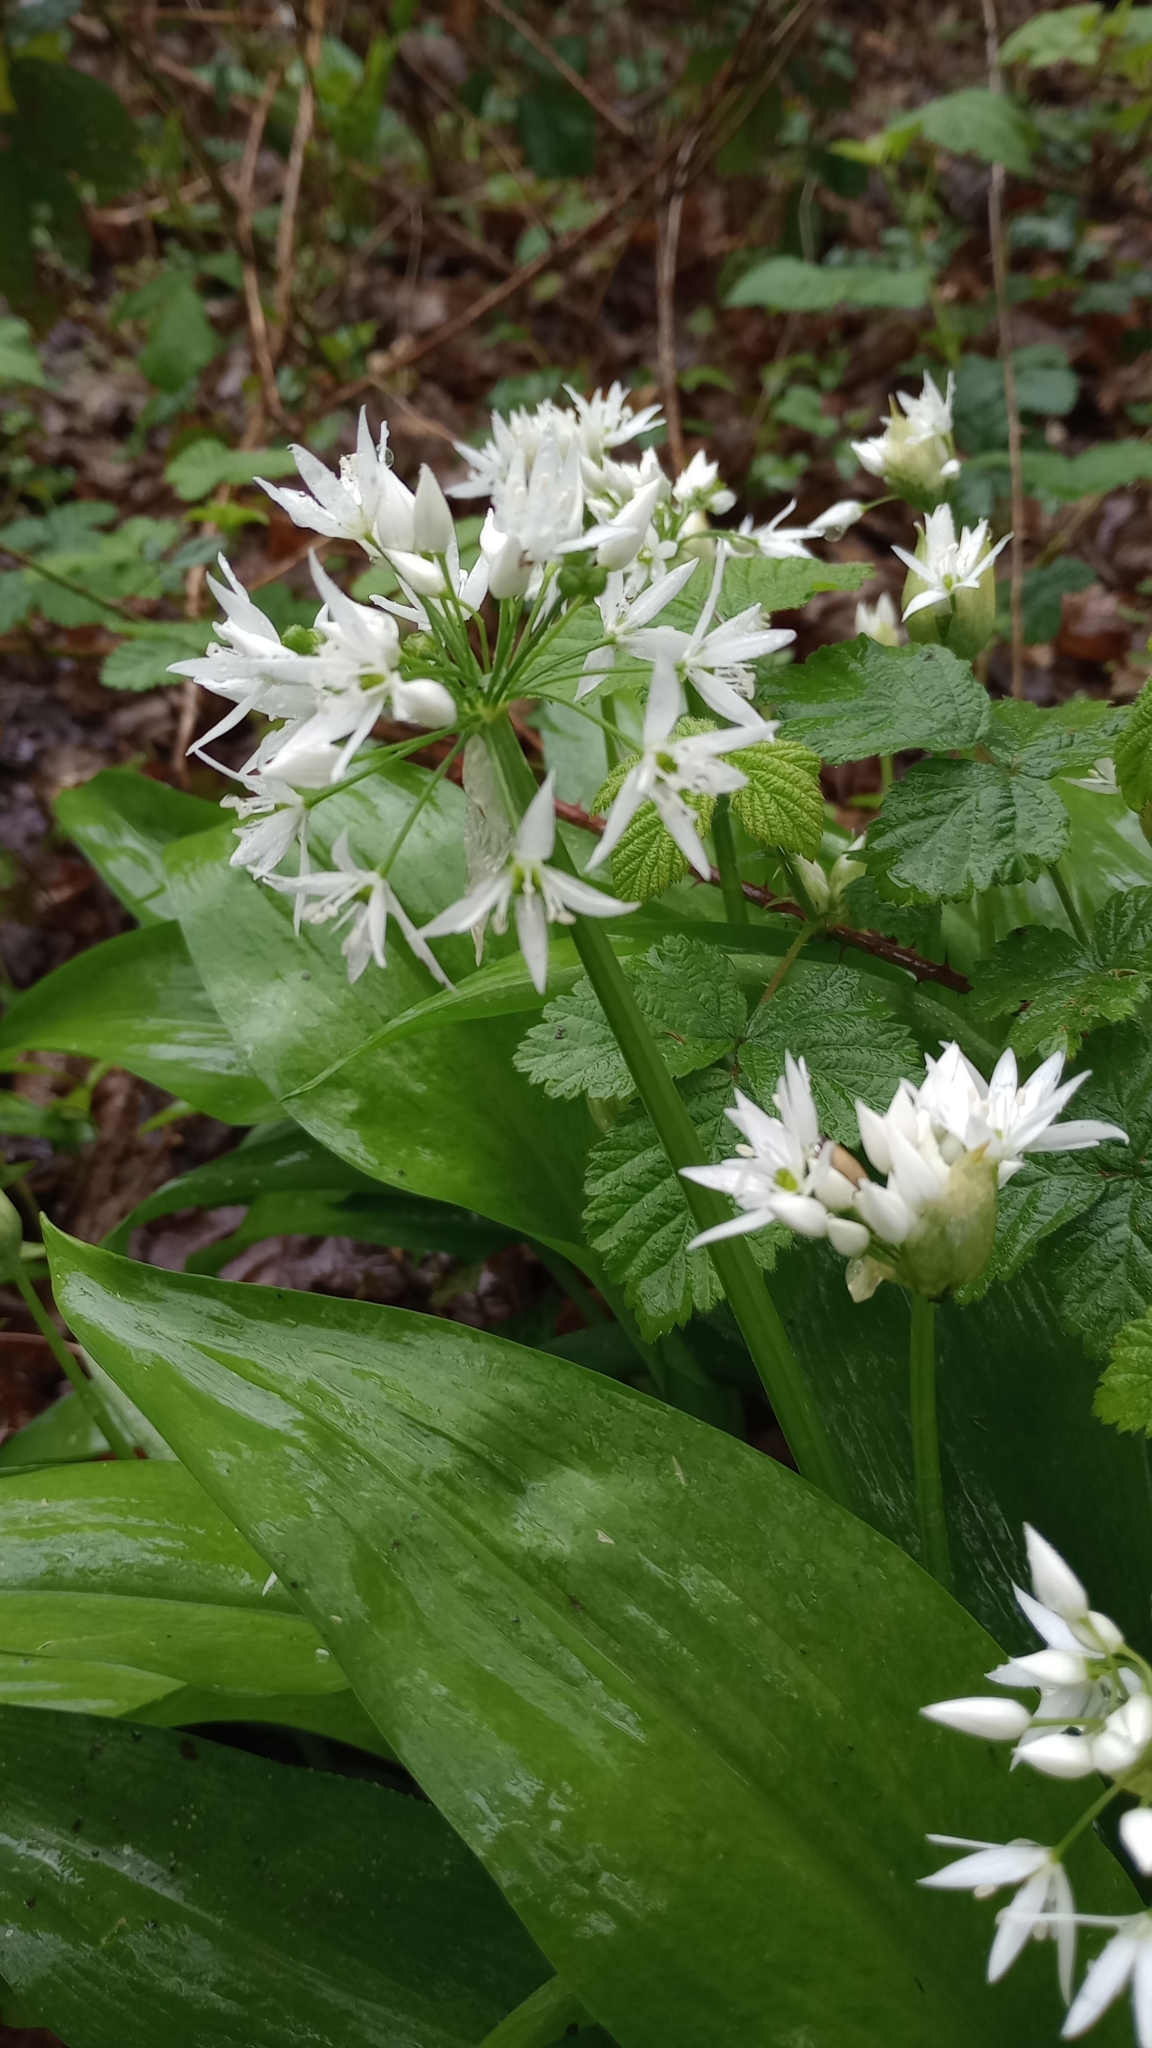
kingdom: Plantae
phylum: Tracheophyta
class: Liliopsida
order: Asparagales
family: Amaryllidaceae
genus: Allium
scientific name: Allium ursinum
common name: Ramsons
